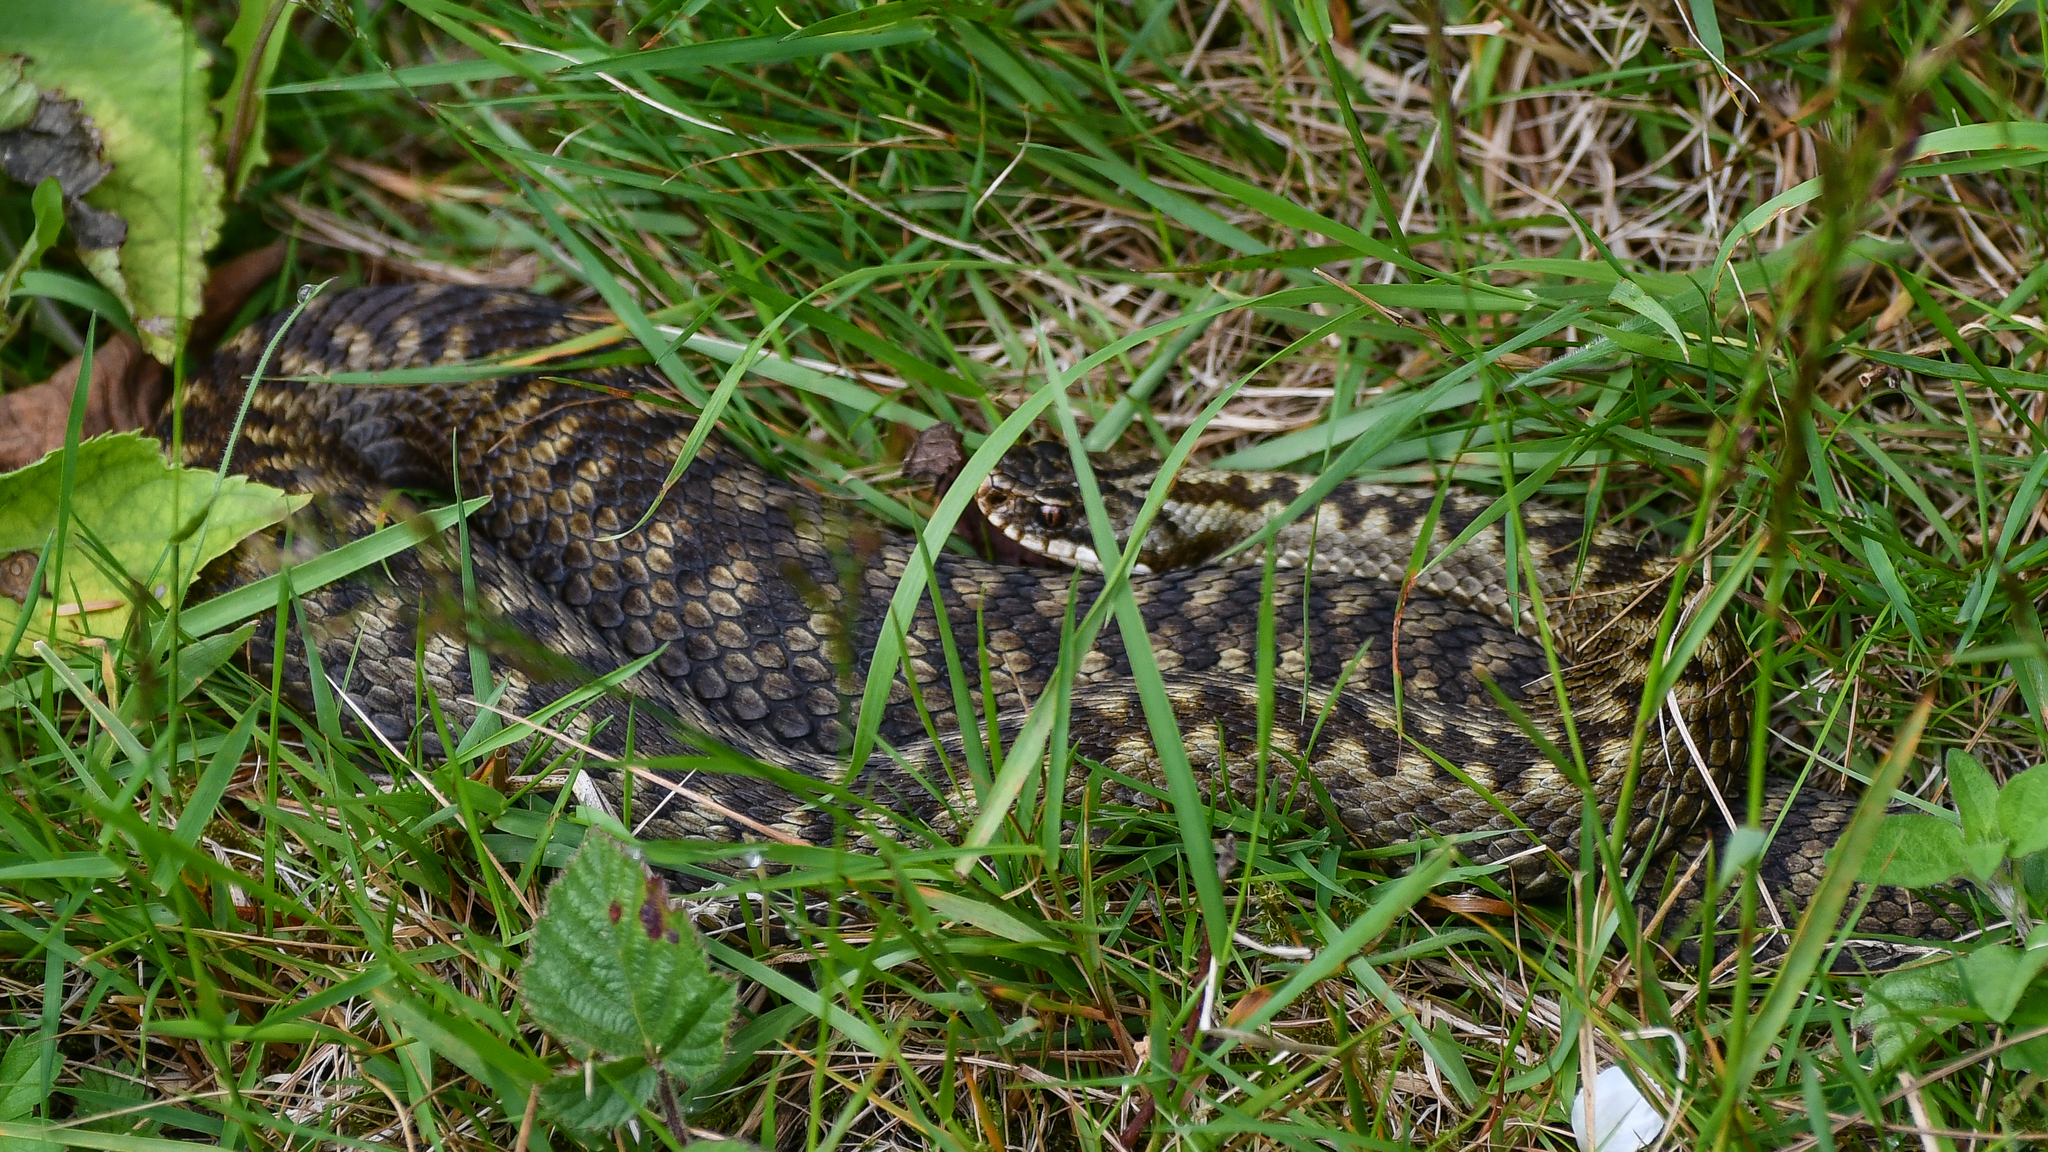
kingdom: Animalia
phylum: Chordata
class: Squamata
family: Viperidae
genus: Vipera
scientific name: Vipera berus
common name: Adder
